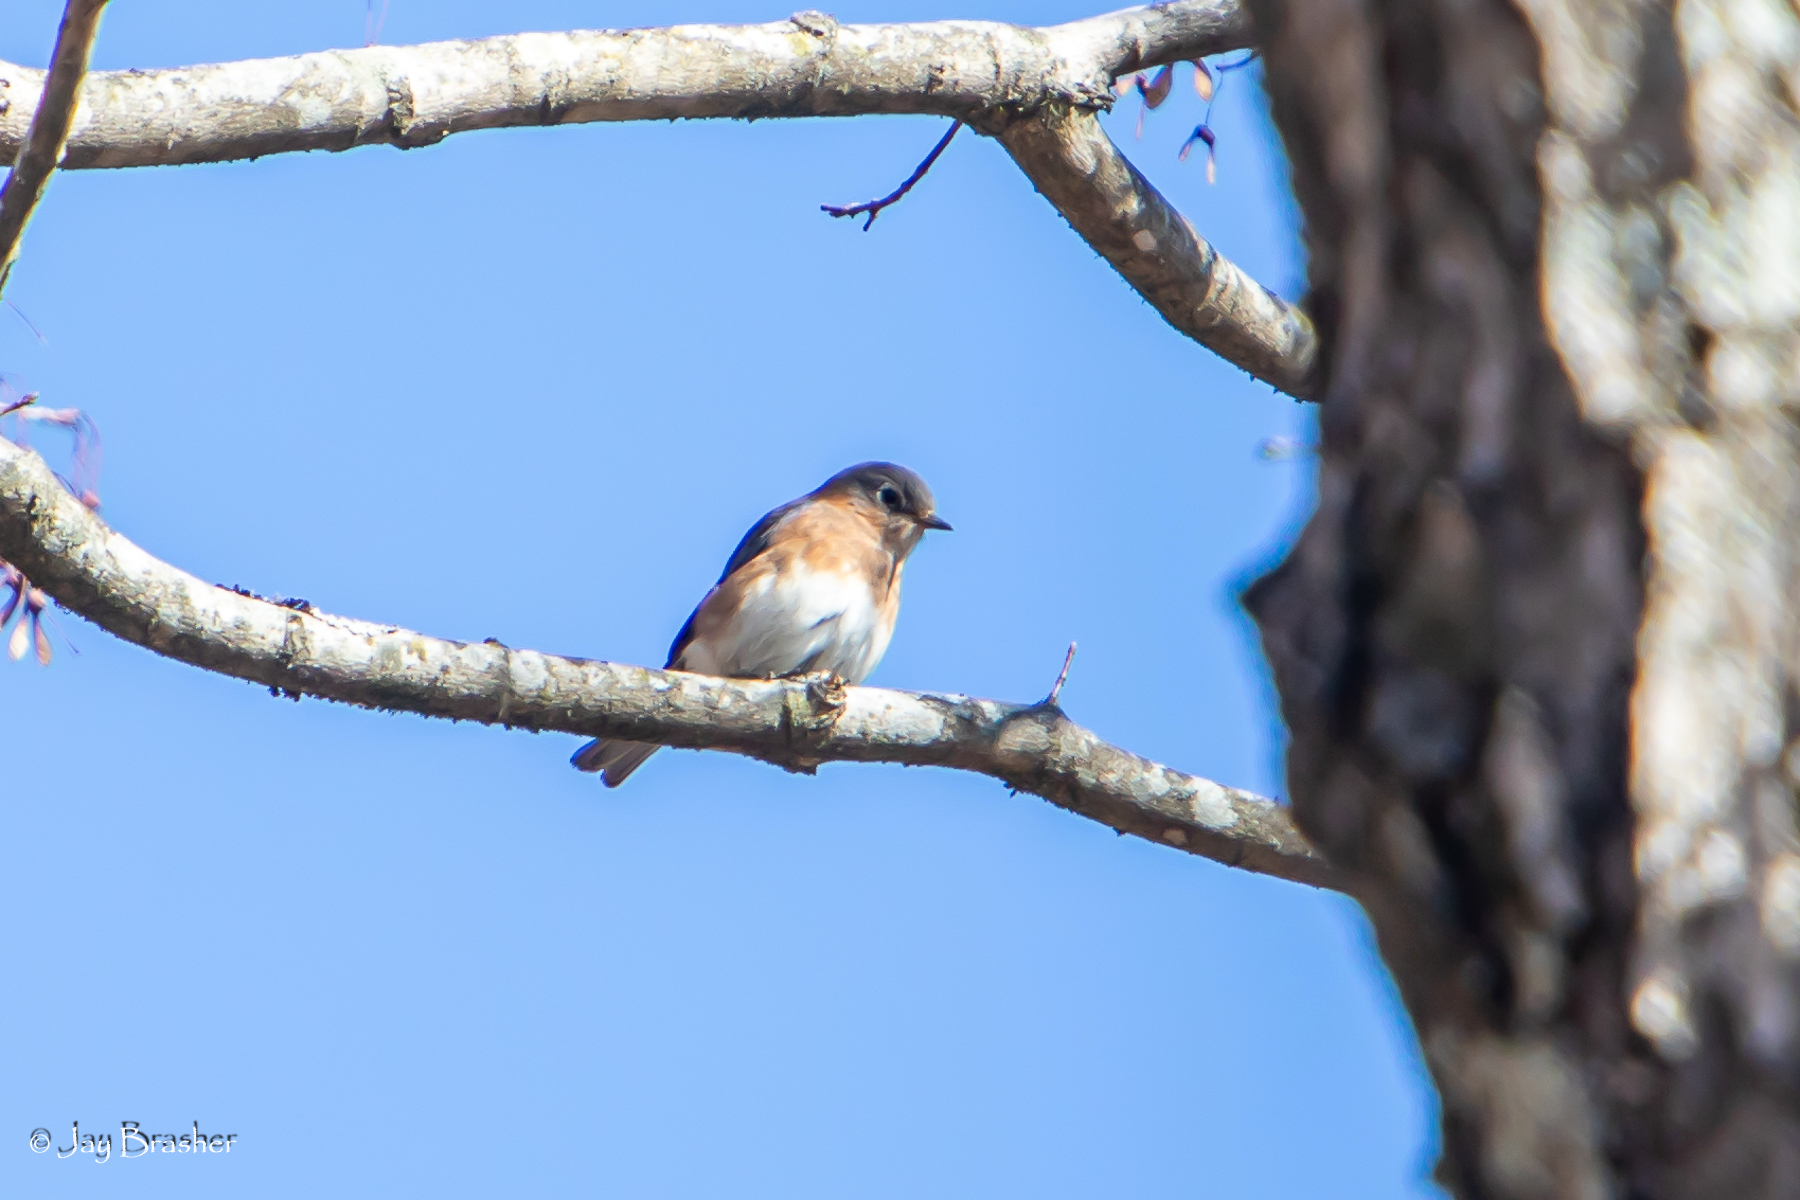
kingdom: Animalia
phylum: Chordata
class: Aves
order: Passeriformes
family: Turdidae
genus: Sialia
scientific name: Sialia sialis
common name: Eastern bluebird
